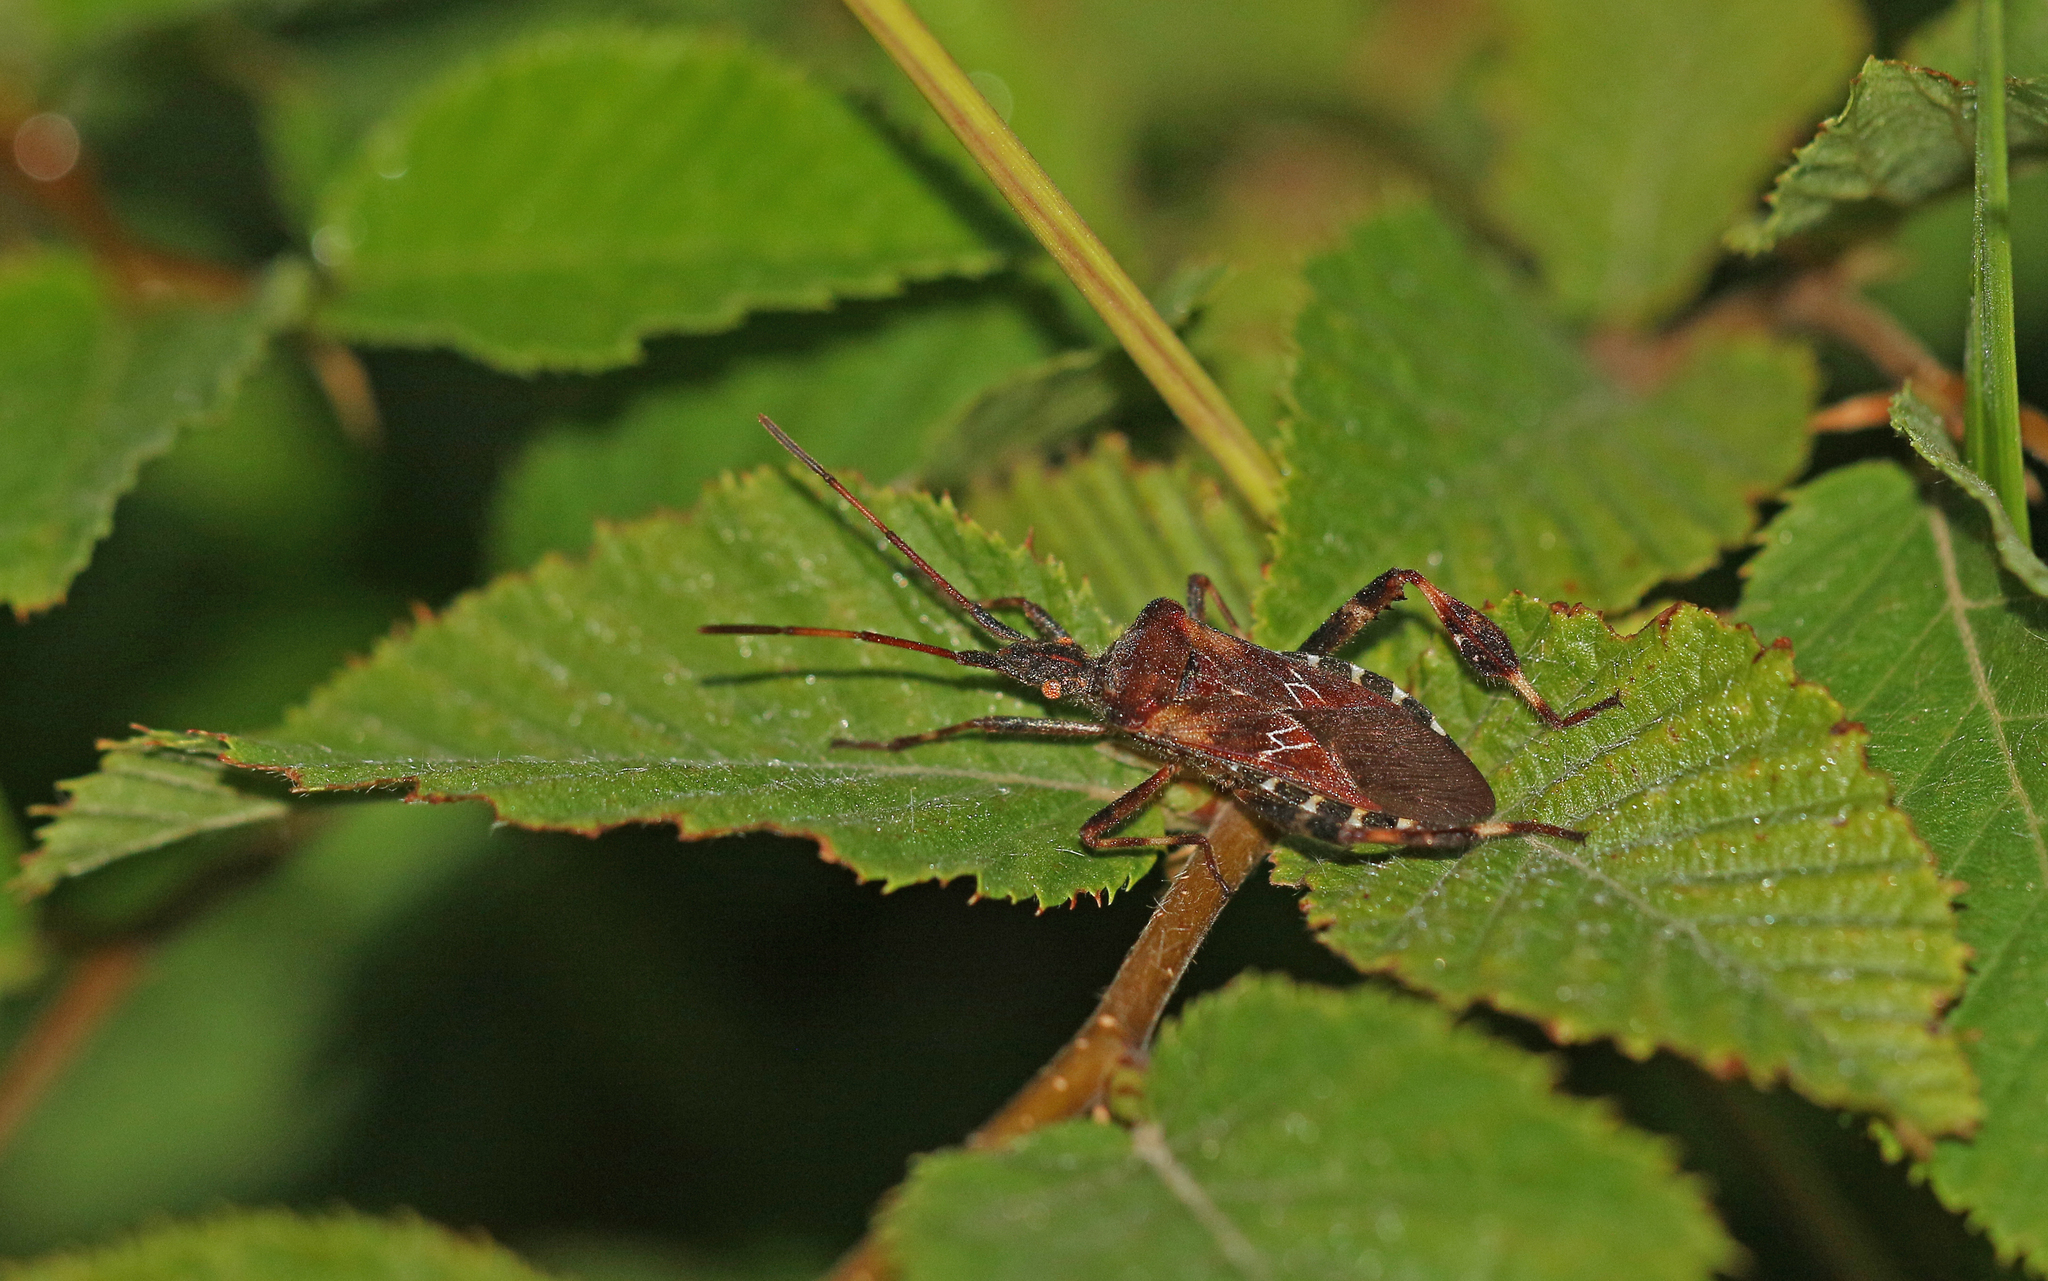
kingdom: Animalia
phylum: Arthropoda
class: Insecta
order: Hemiptera
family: Coreidae
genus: Leptoglossus
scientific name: Leptoglossus occidentalis
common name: Western conifer-seed bug
